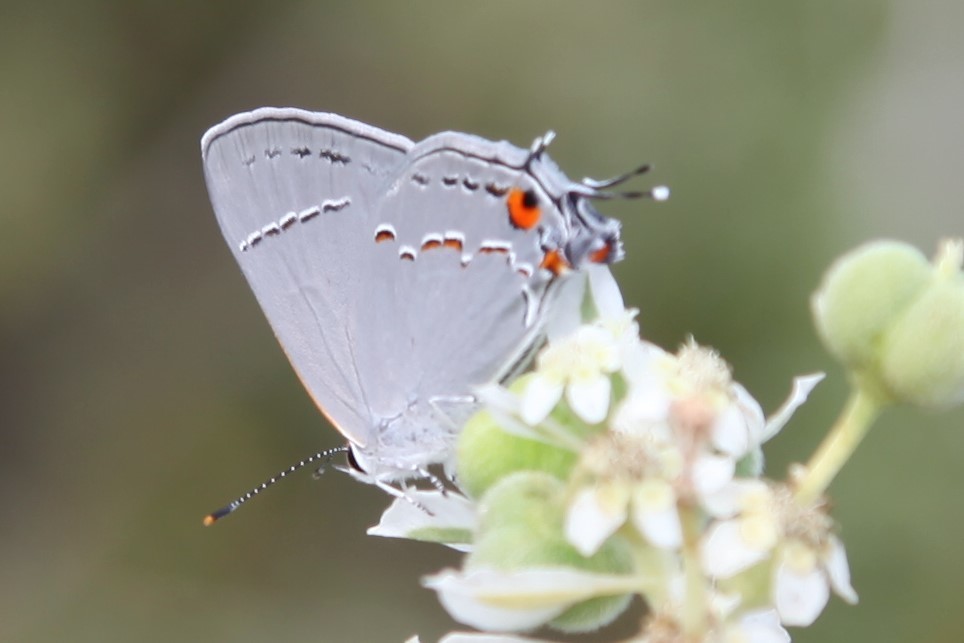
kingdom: Animalia
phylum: Arthropoda
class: Insecta
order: Lepidoptera
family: Lycaenidae
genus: Strymon
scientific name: Strymon melinus
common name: Gray hairstreak
